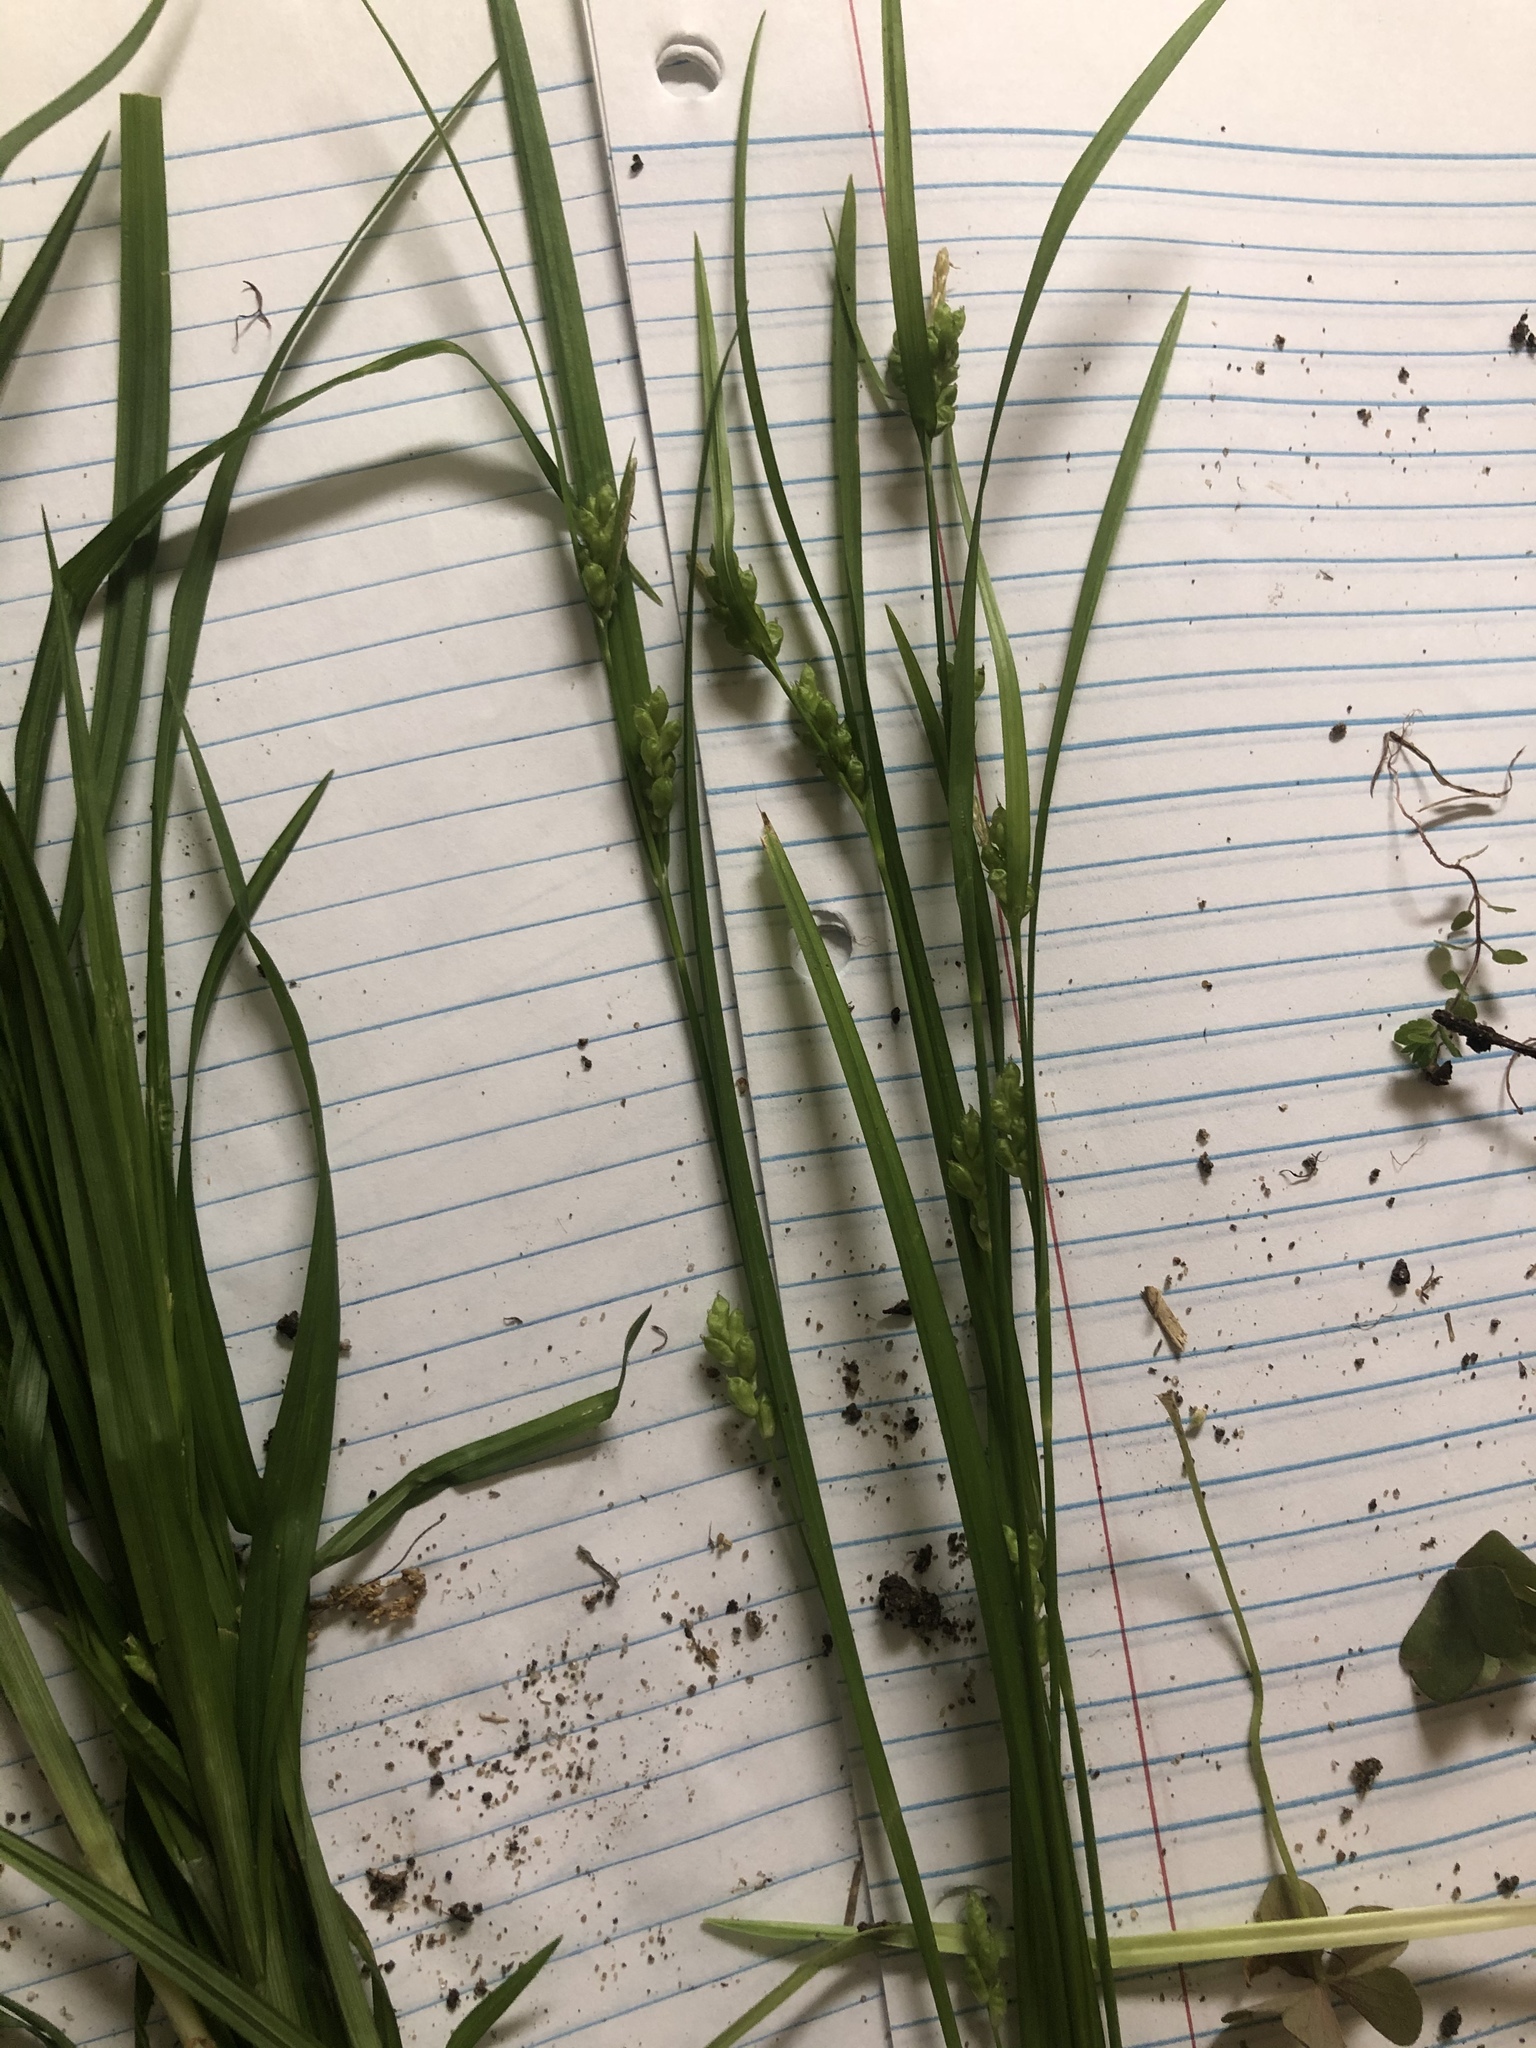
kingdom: Plantae
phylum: Tracheophyta
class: Liliopsida
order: Poales
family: Cyperaceae
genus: Carex
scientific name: Carex corrugata
